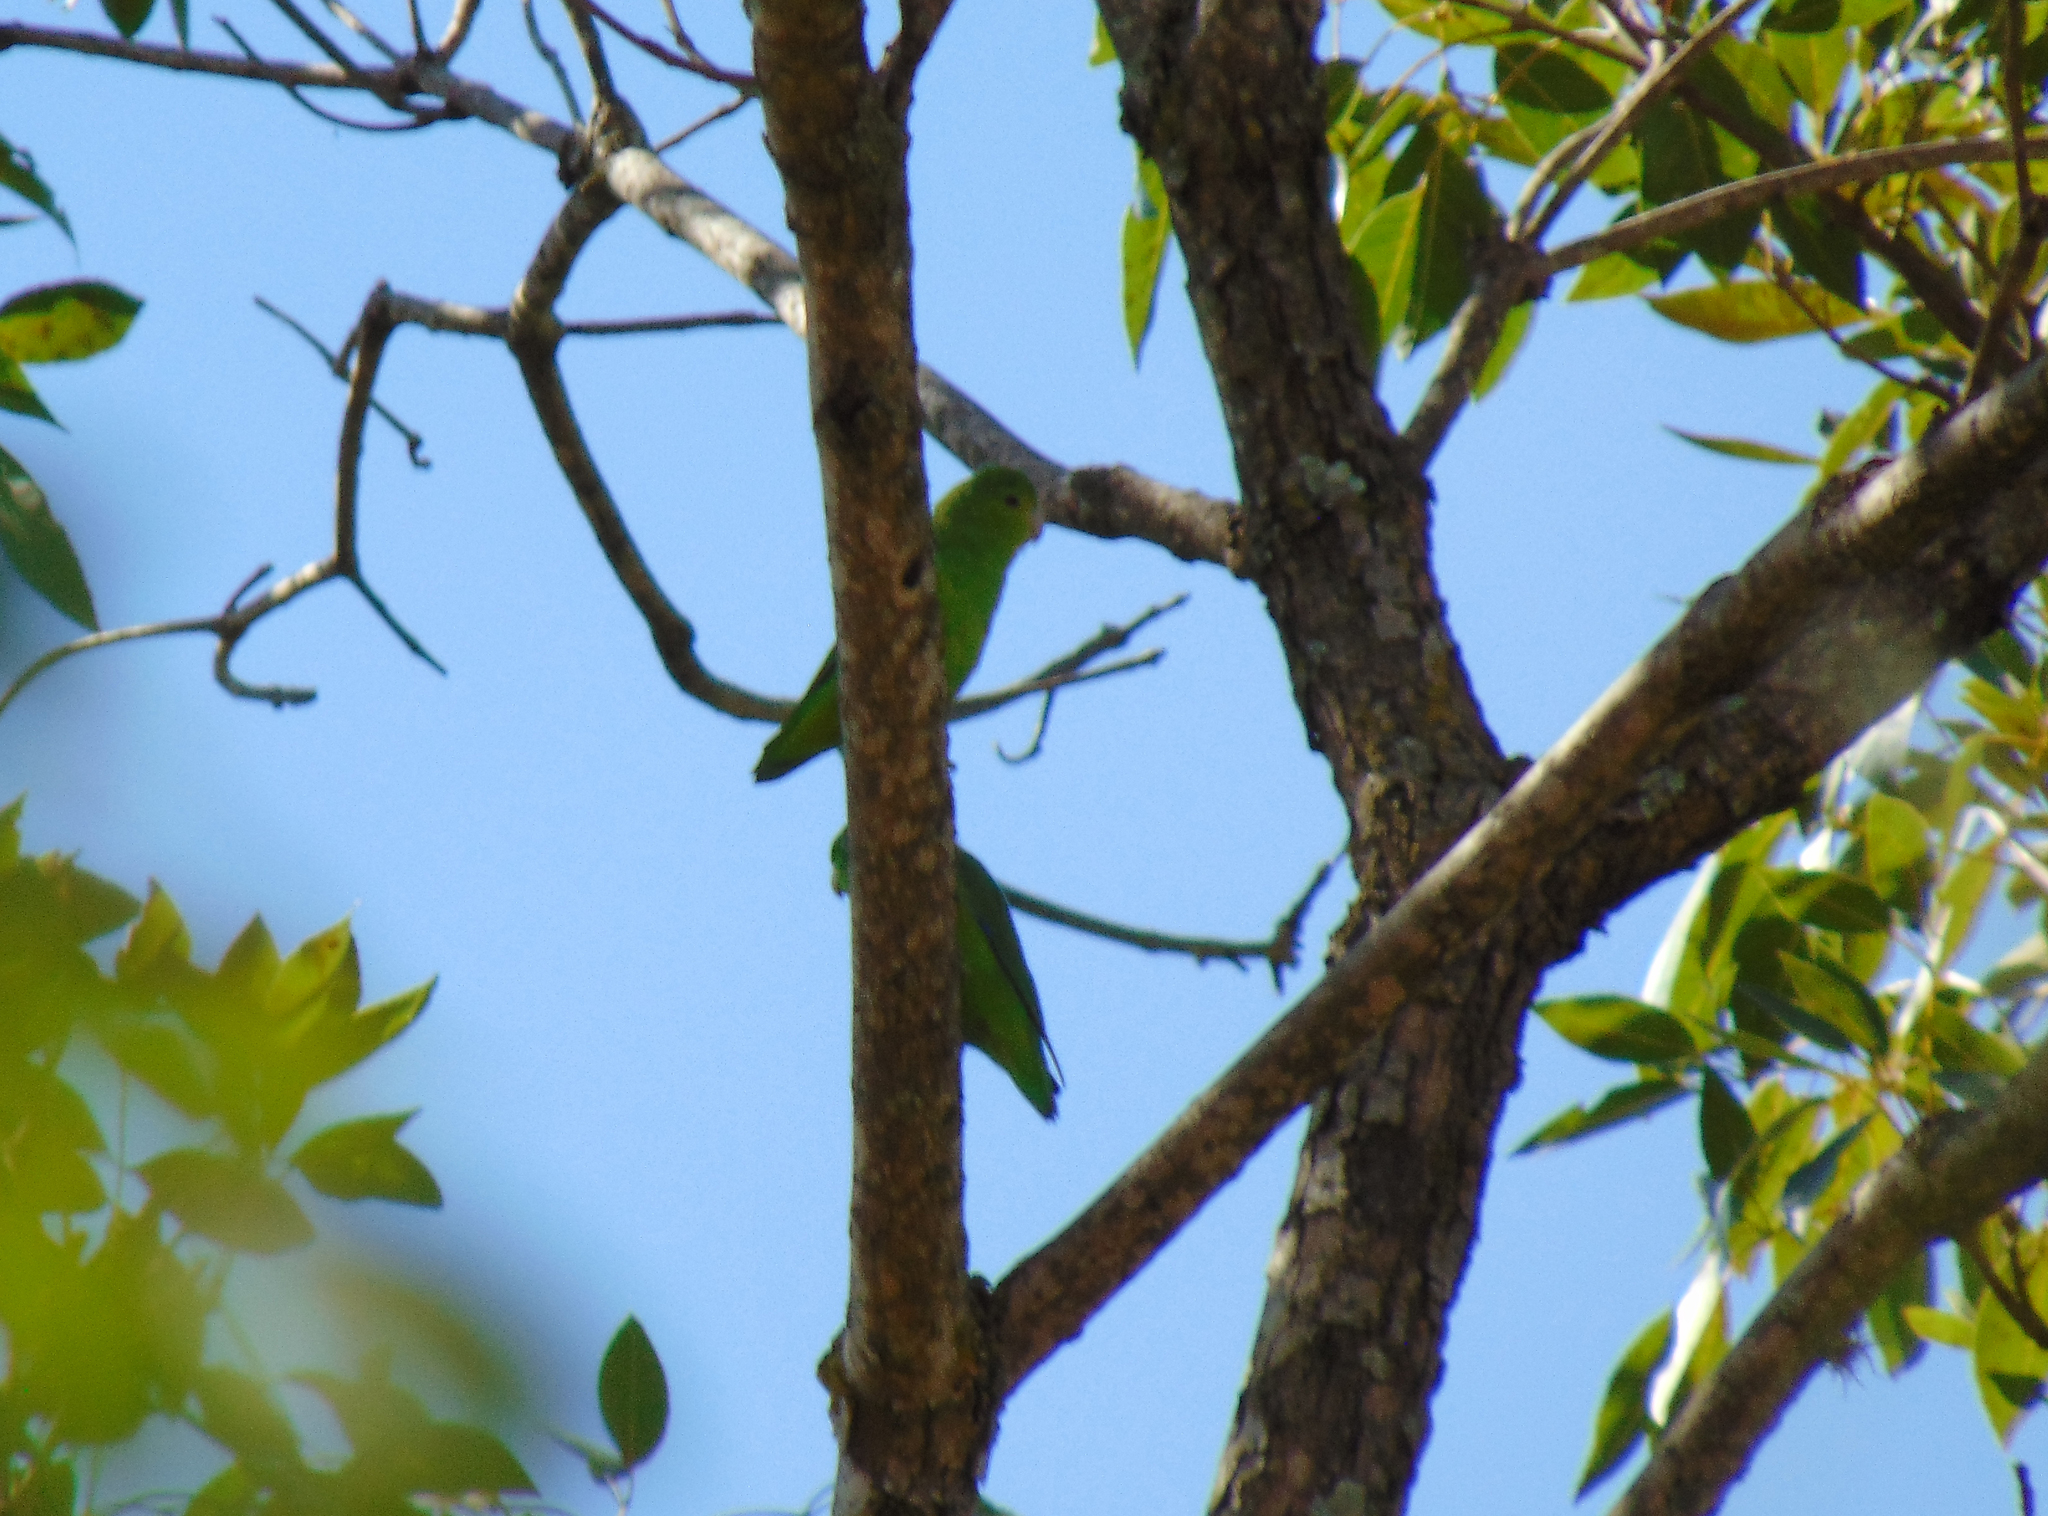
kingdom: Animalia
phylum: Chordata
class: Aves
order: Psittaciformes
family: Psittacidae
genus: Forpus
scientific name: Forpus xanthopterygius
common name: Blue-winged parrotlet
